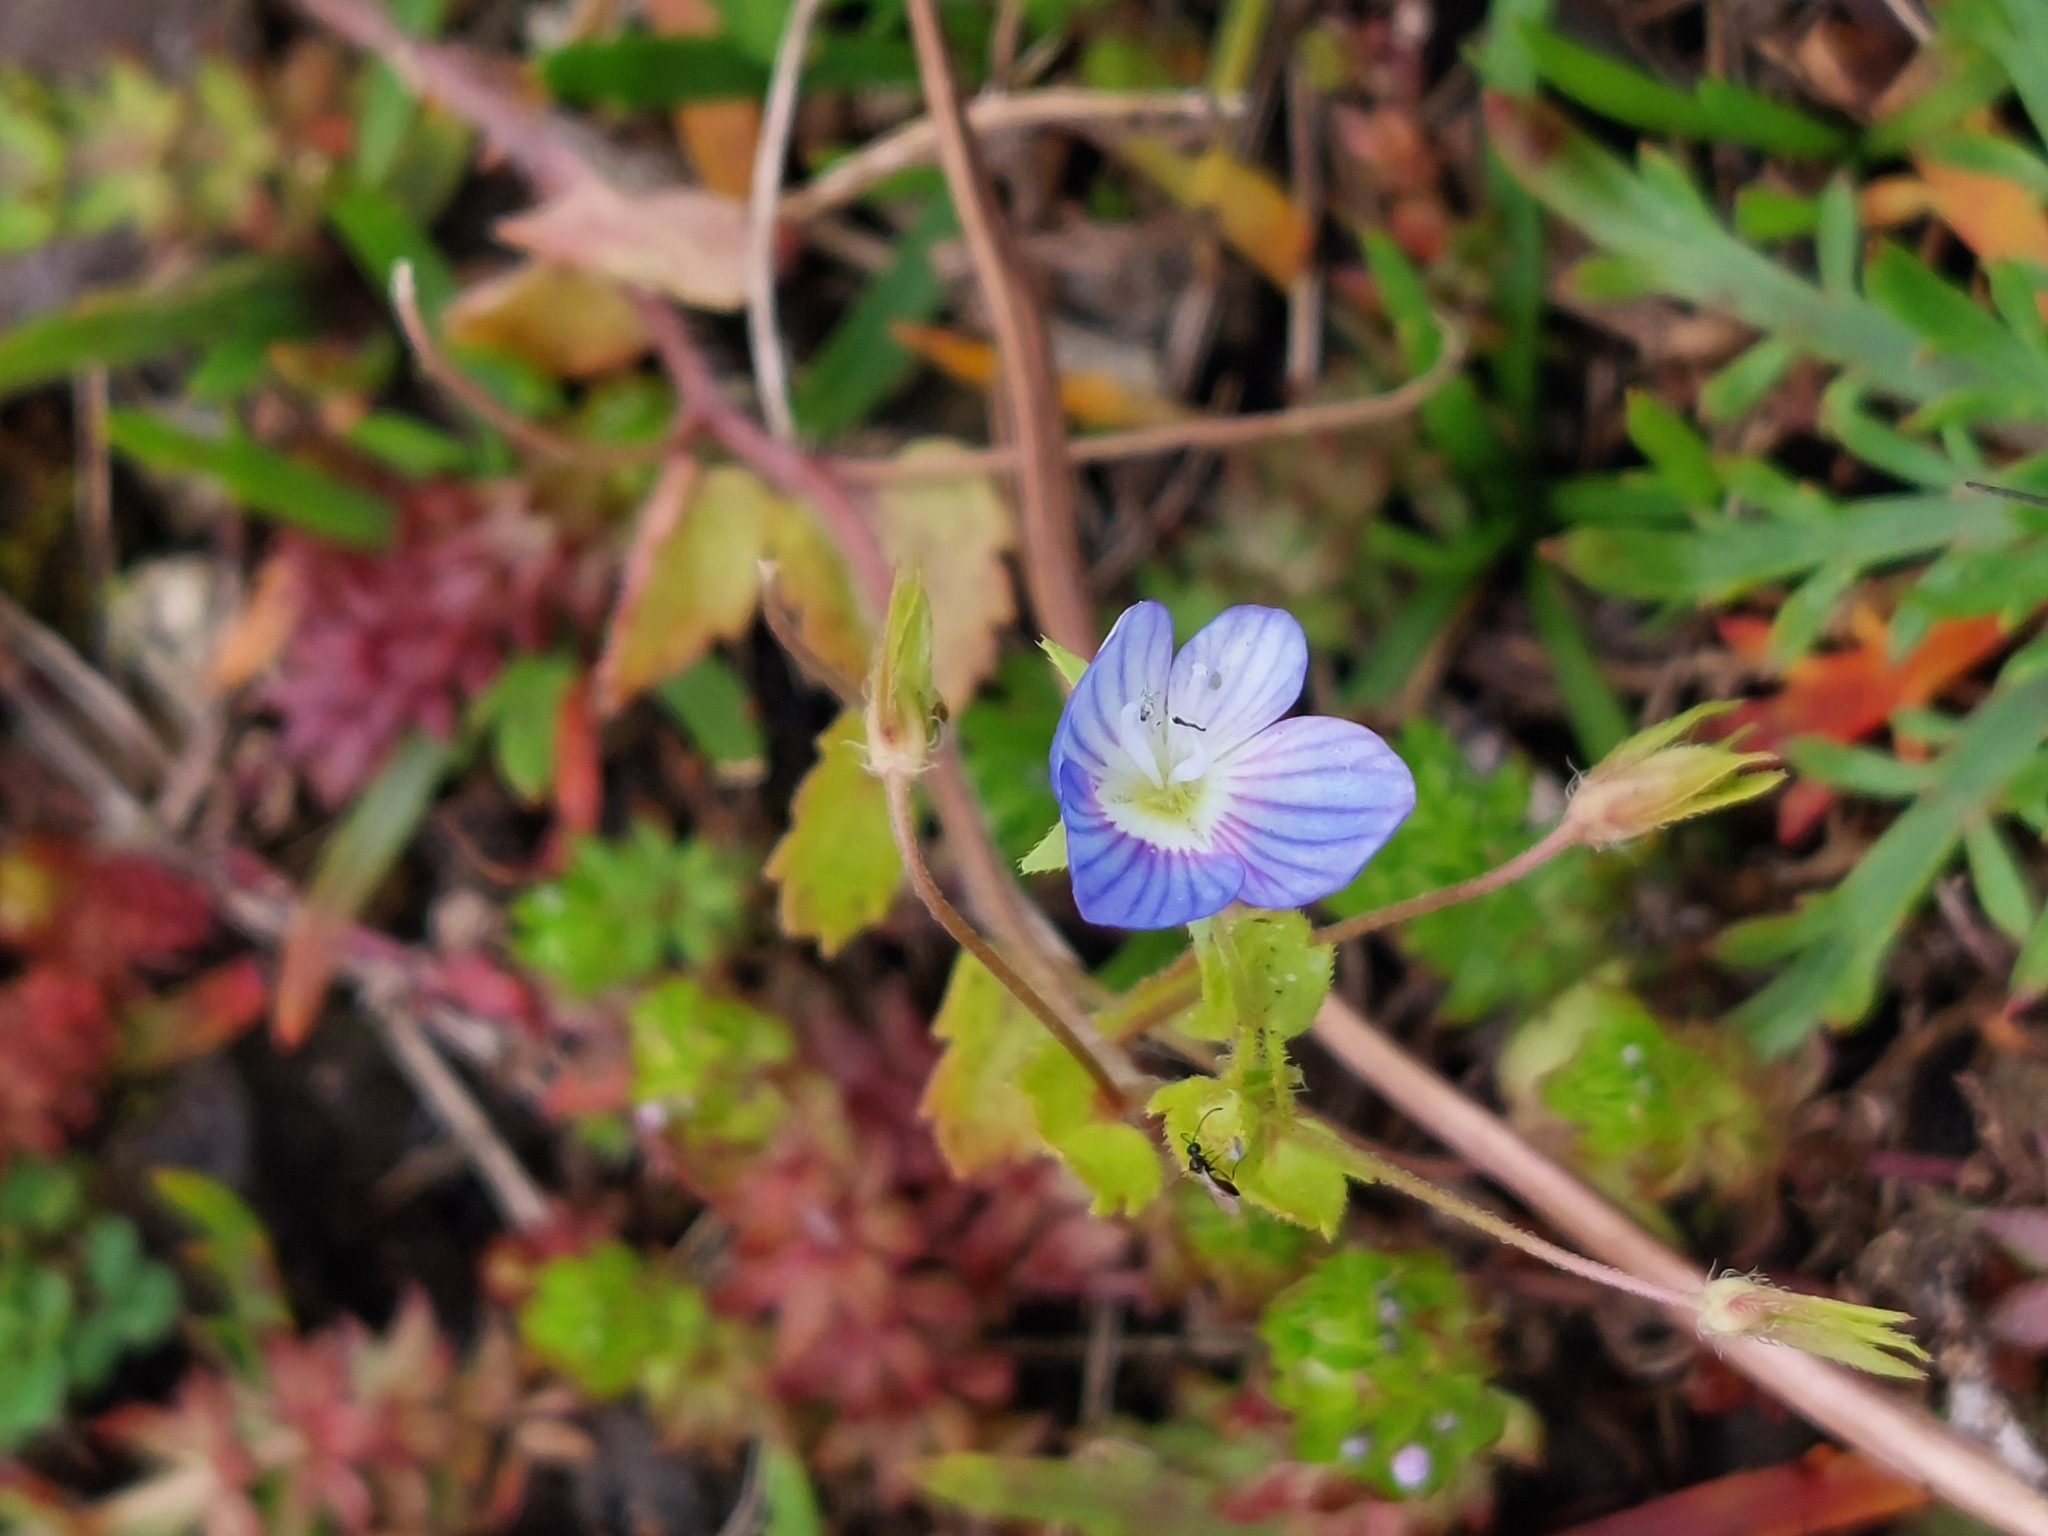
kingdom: Plantae
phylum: Tracheophyta
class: Magnoliopsida
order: Lamiales
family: Plantaginaceae
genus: Veronica
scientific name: Veronica persica
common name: Common field-speedwell
